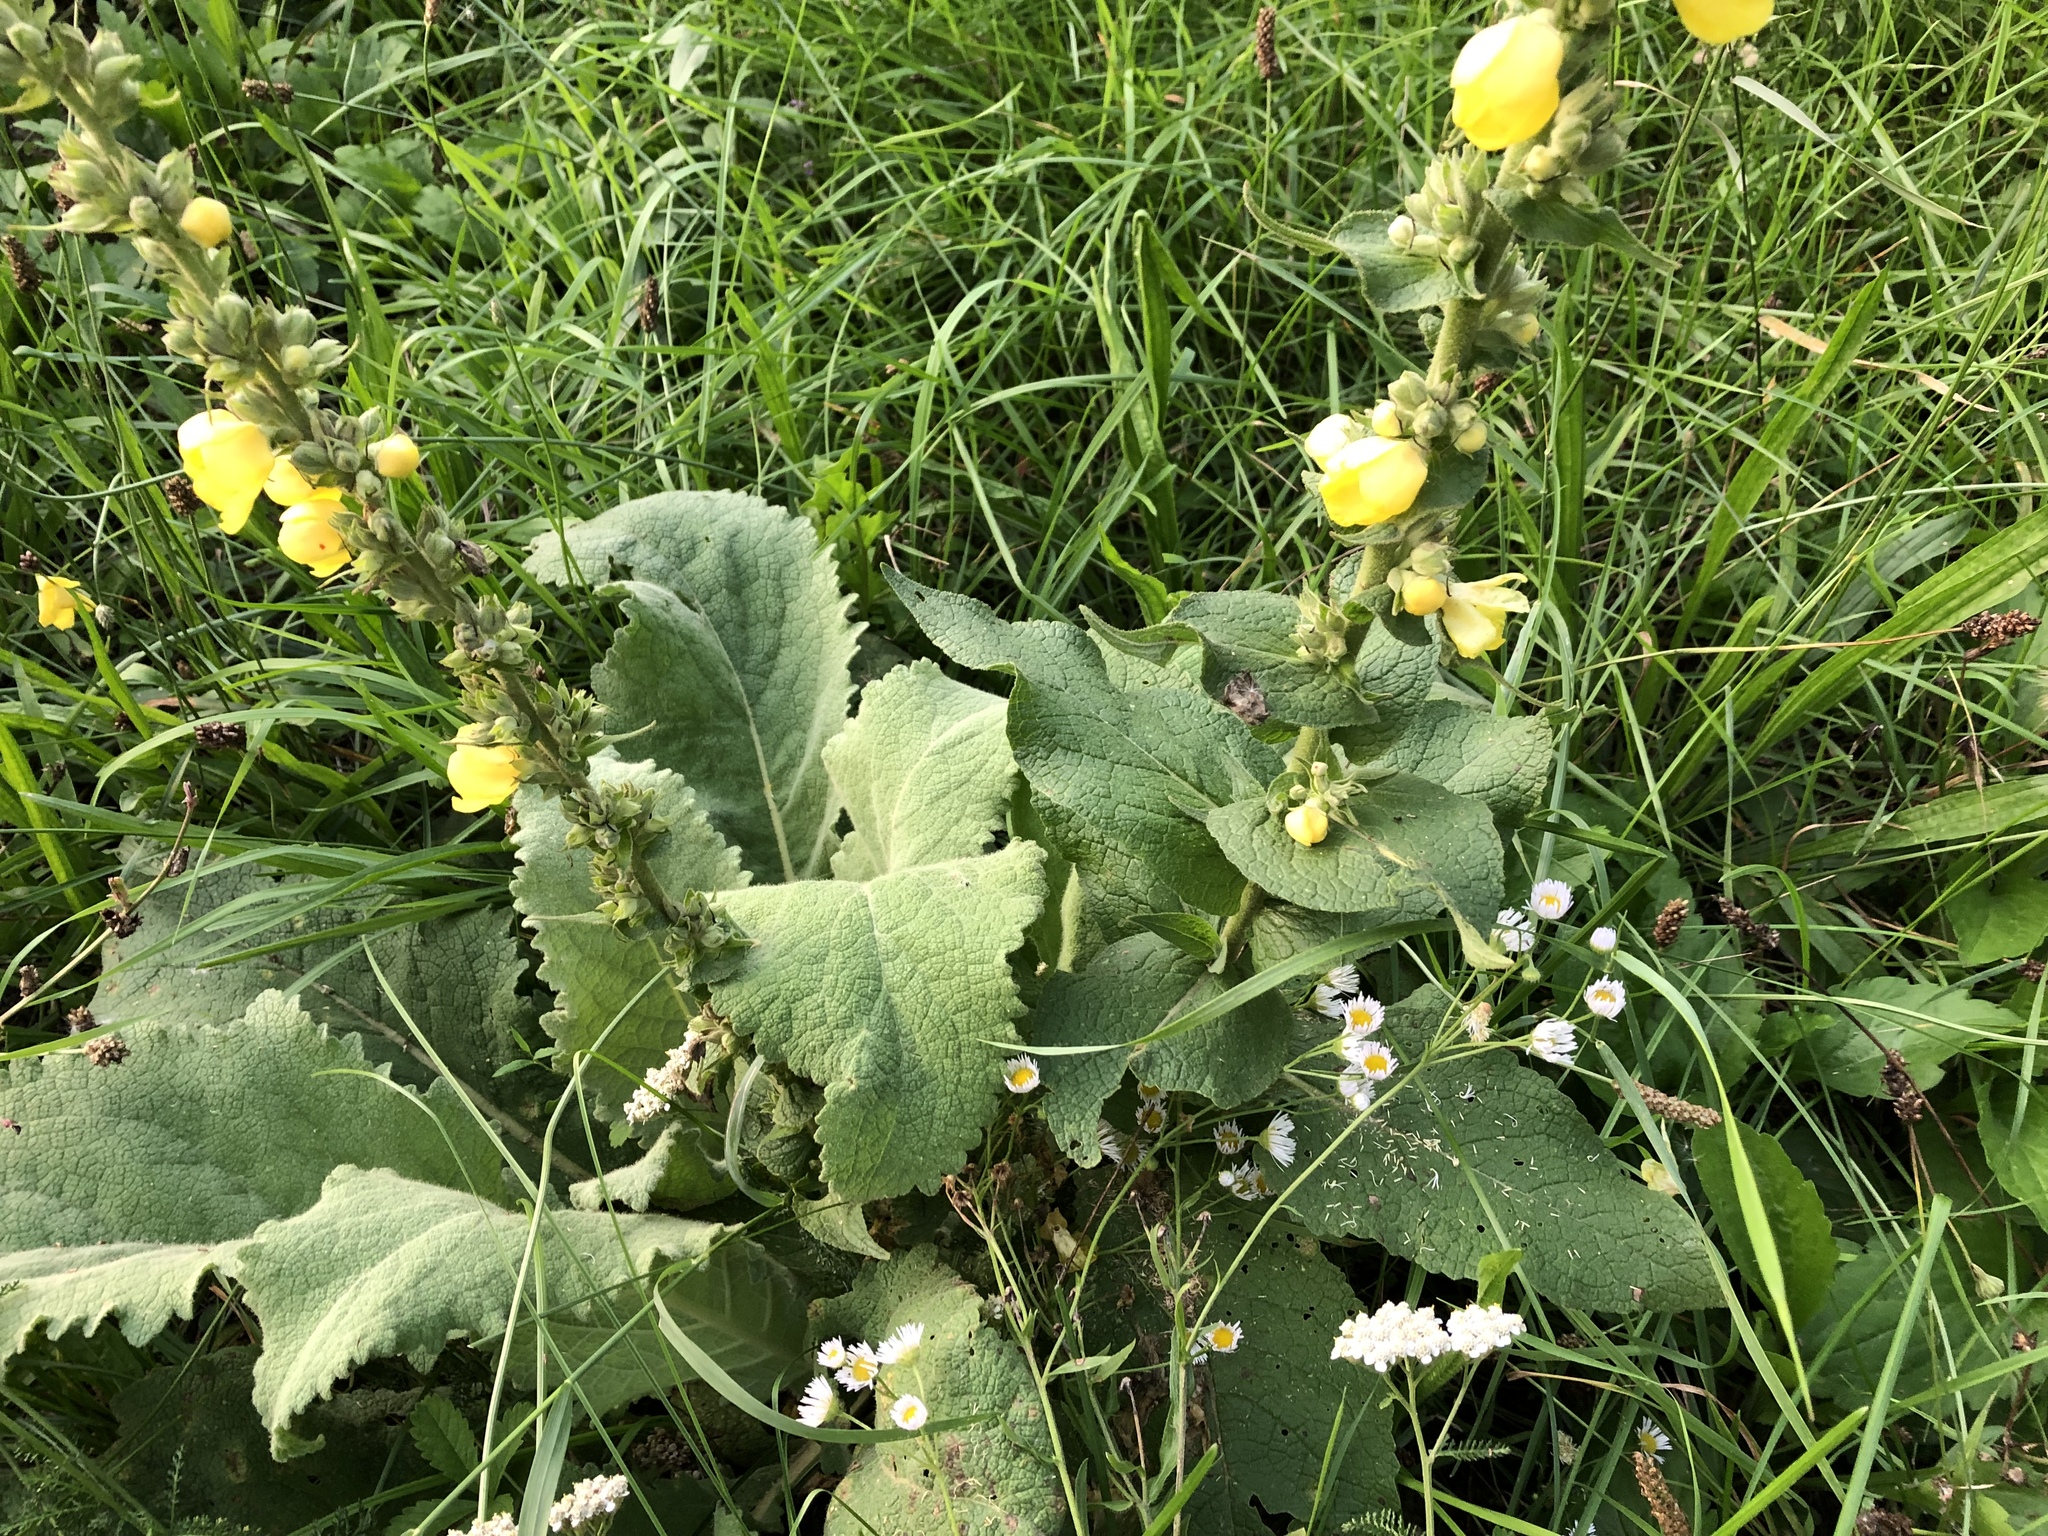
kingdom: Plantae
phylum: Tracheophyta
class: Magnoliopsida
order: Lamiales
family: Scrophulariaceae
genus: Verbascum
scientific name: Verbascum phlomoides
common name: Orange mullein
